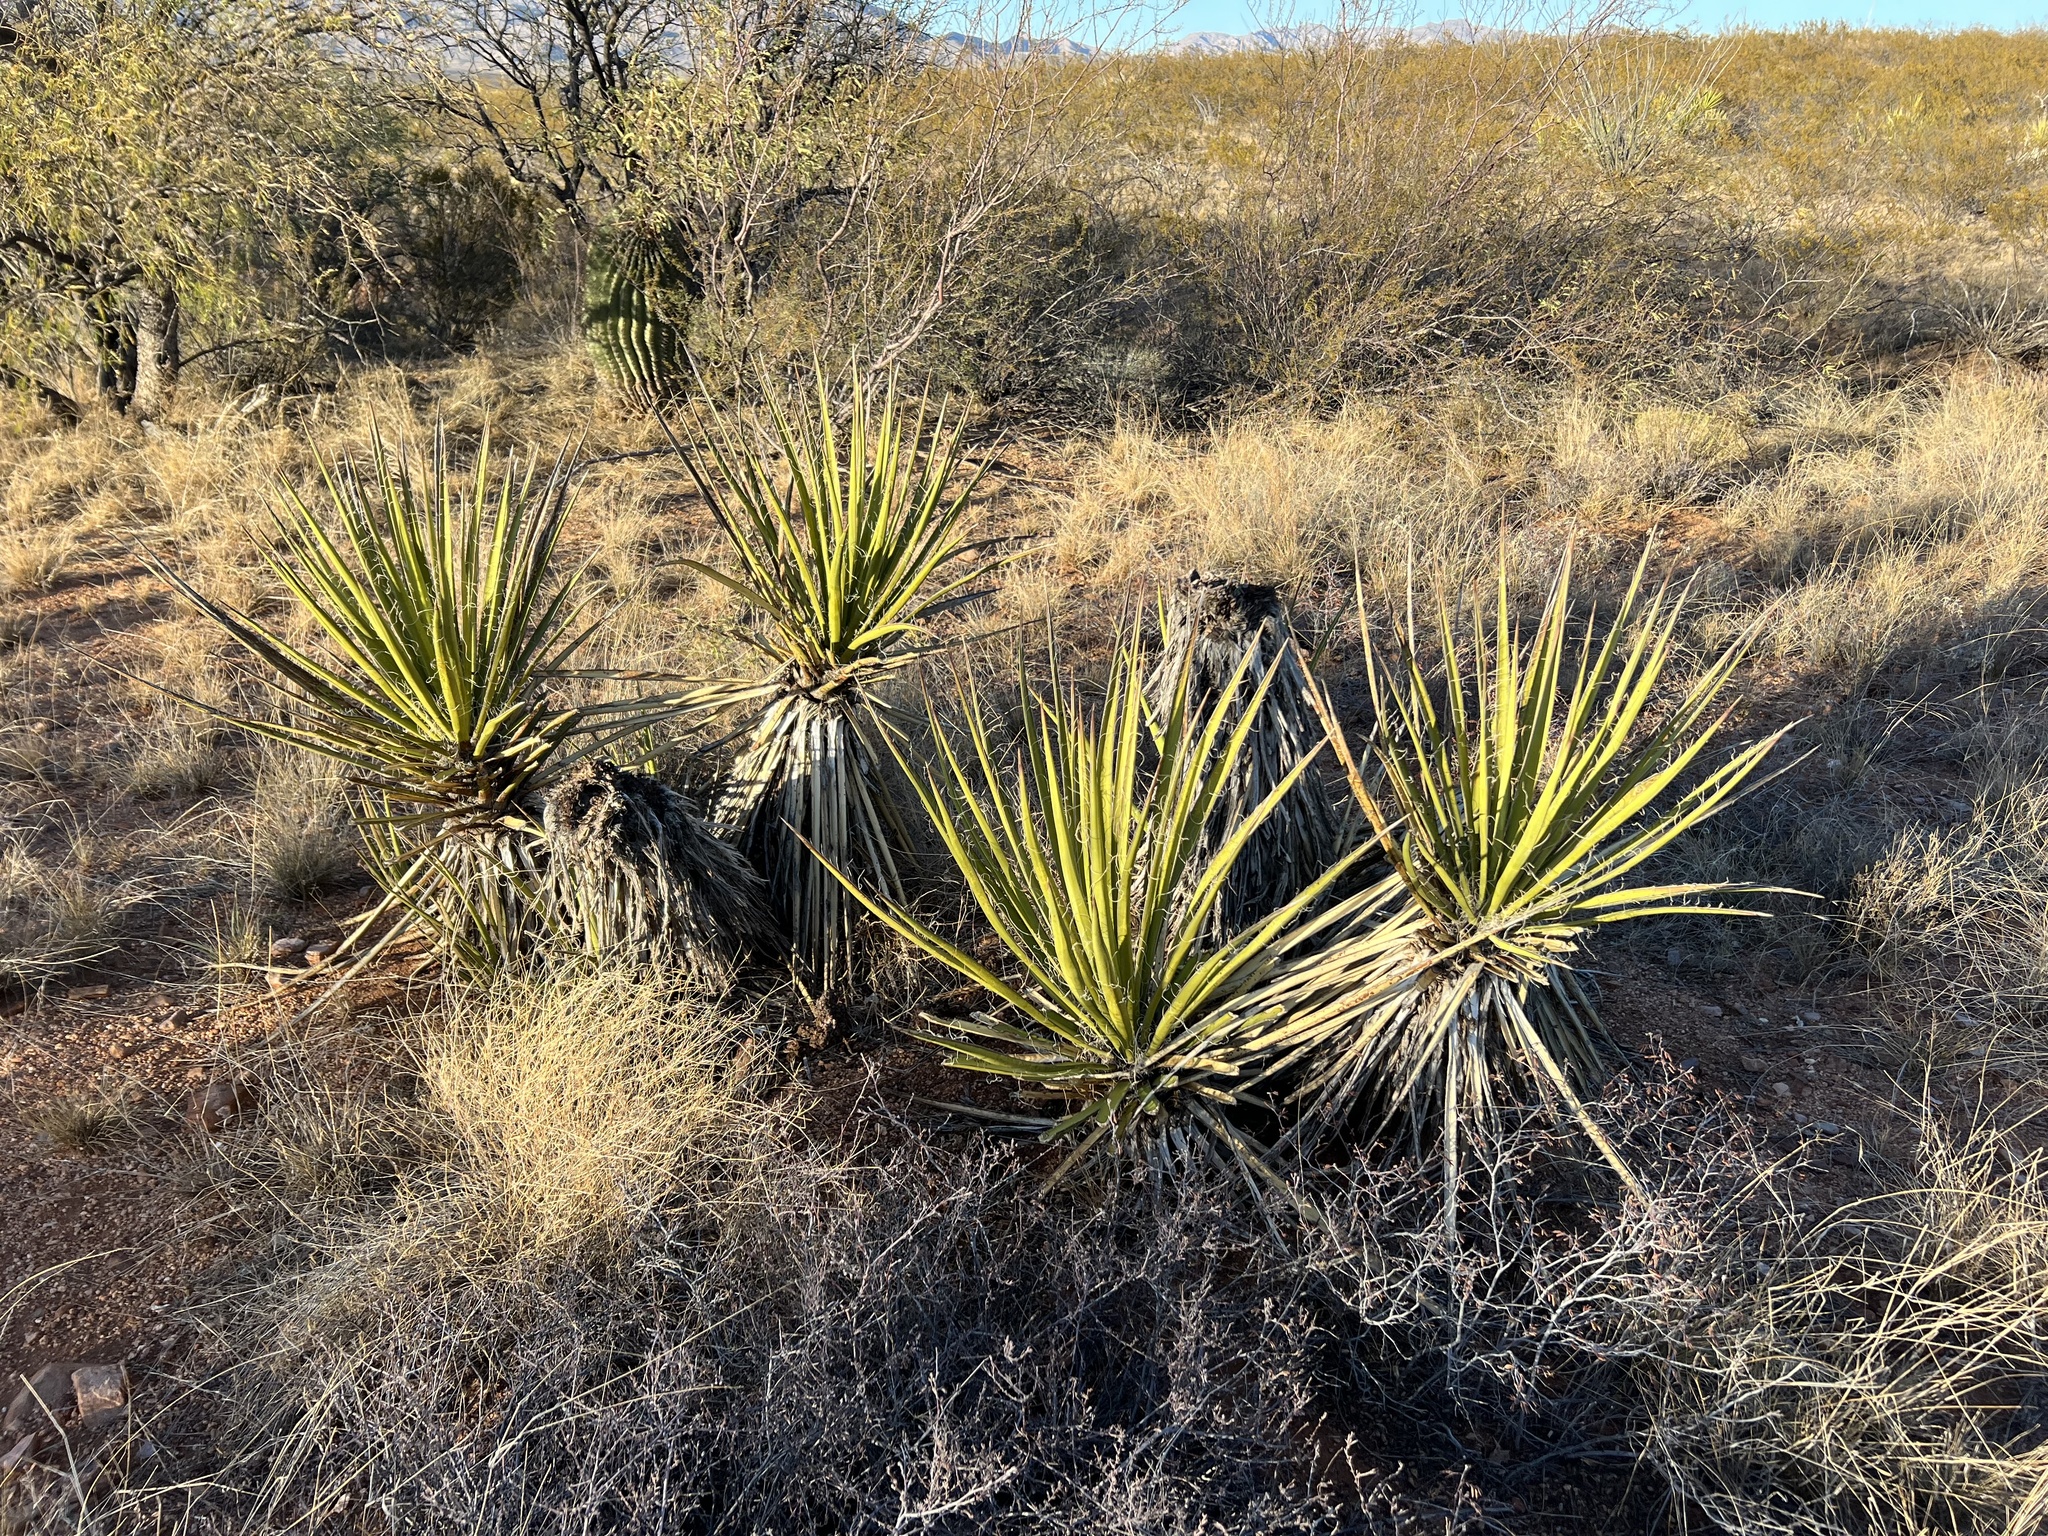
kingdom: Plantae
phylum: Tracheophyta
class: Liliopsida
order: Asparagales
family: Asparagaceae
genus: Yucca
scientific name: Yucca baccata
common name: Banana yucca
